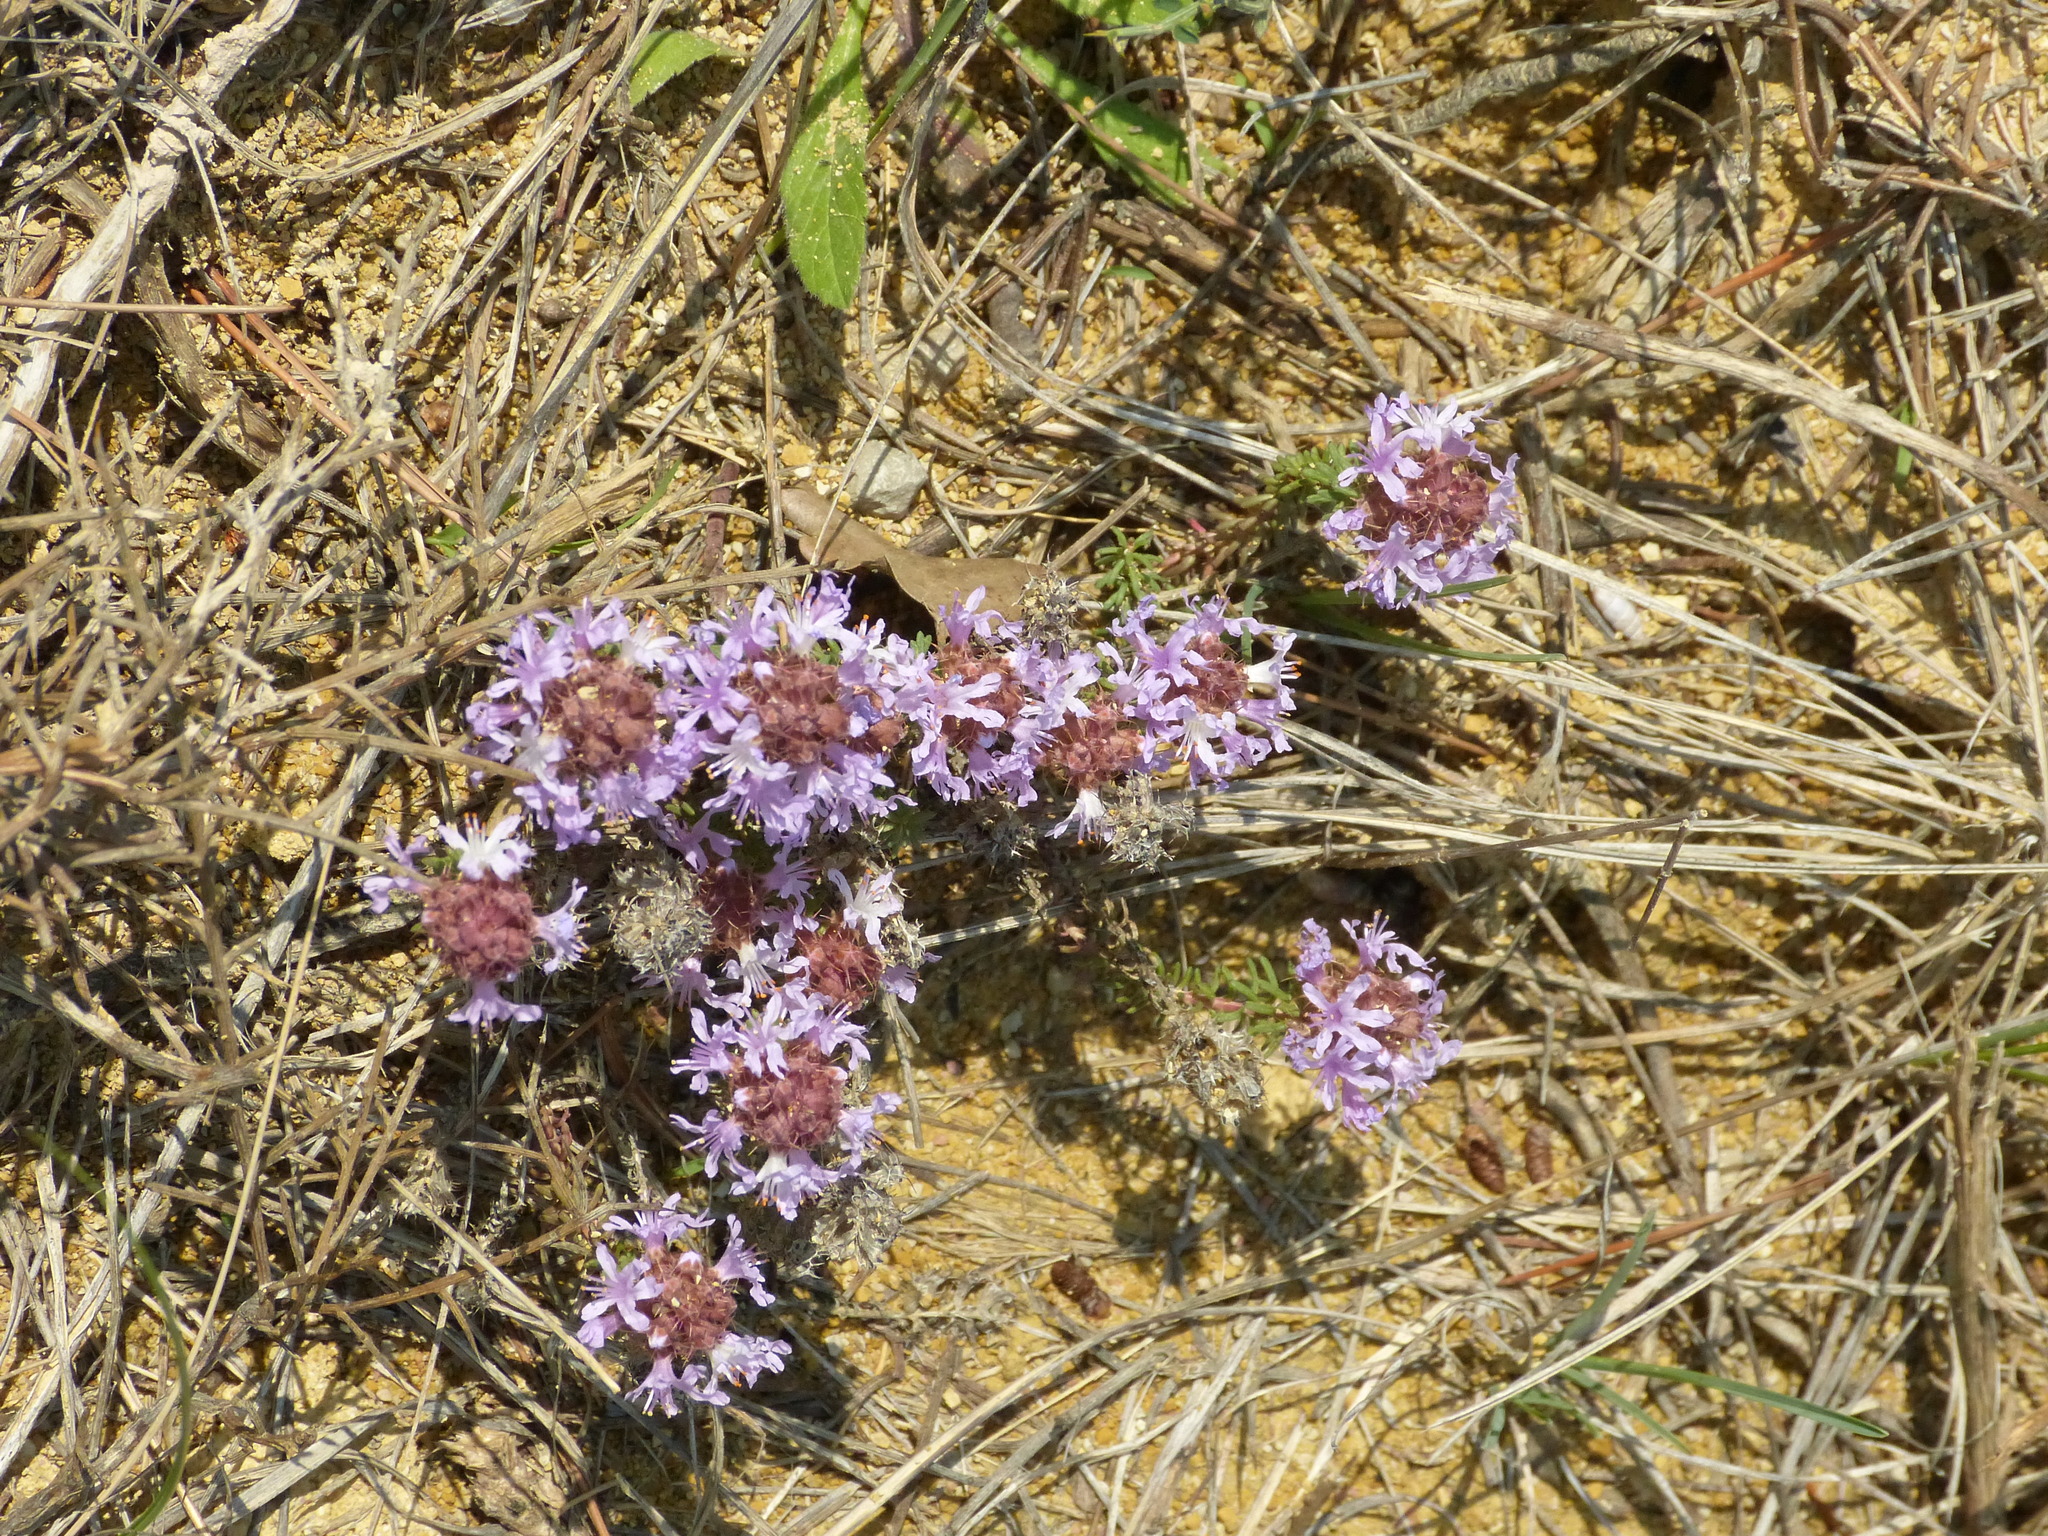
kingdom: Plantae
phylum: Tracheophyta
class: Magnoliopsida
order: Ericales
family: Primulaceae
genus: Coris
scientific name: Coris monspeliensis
